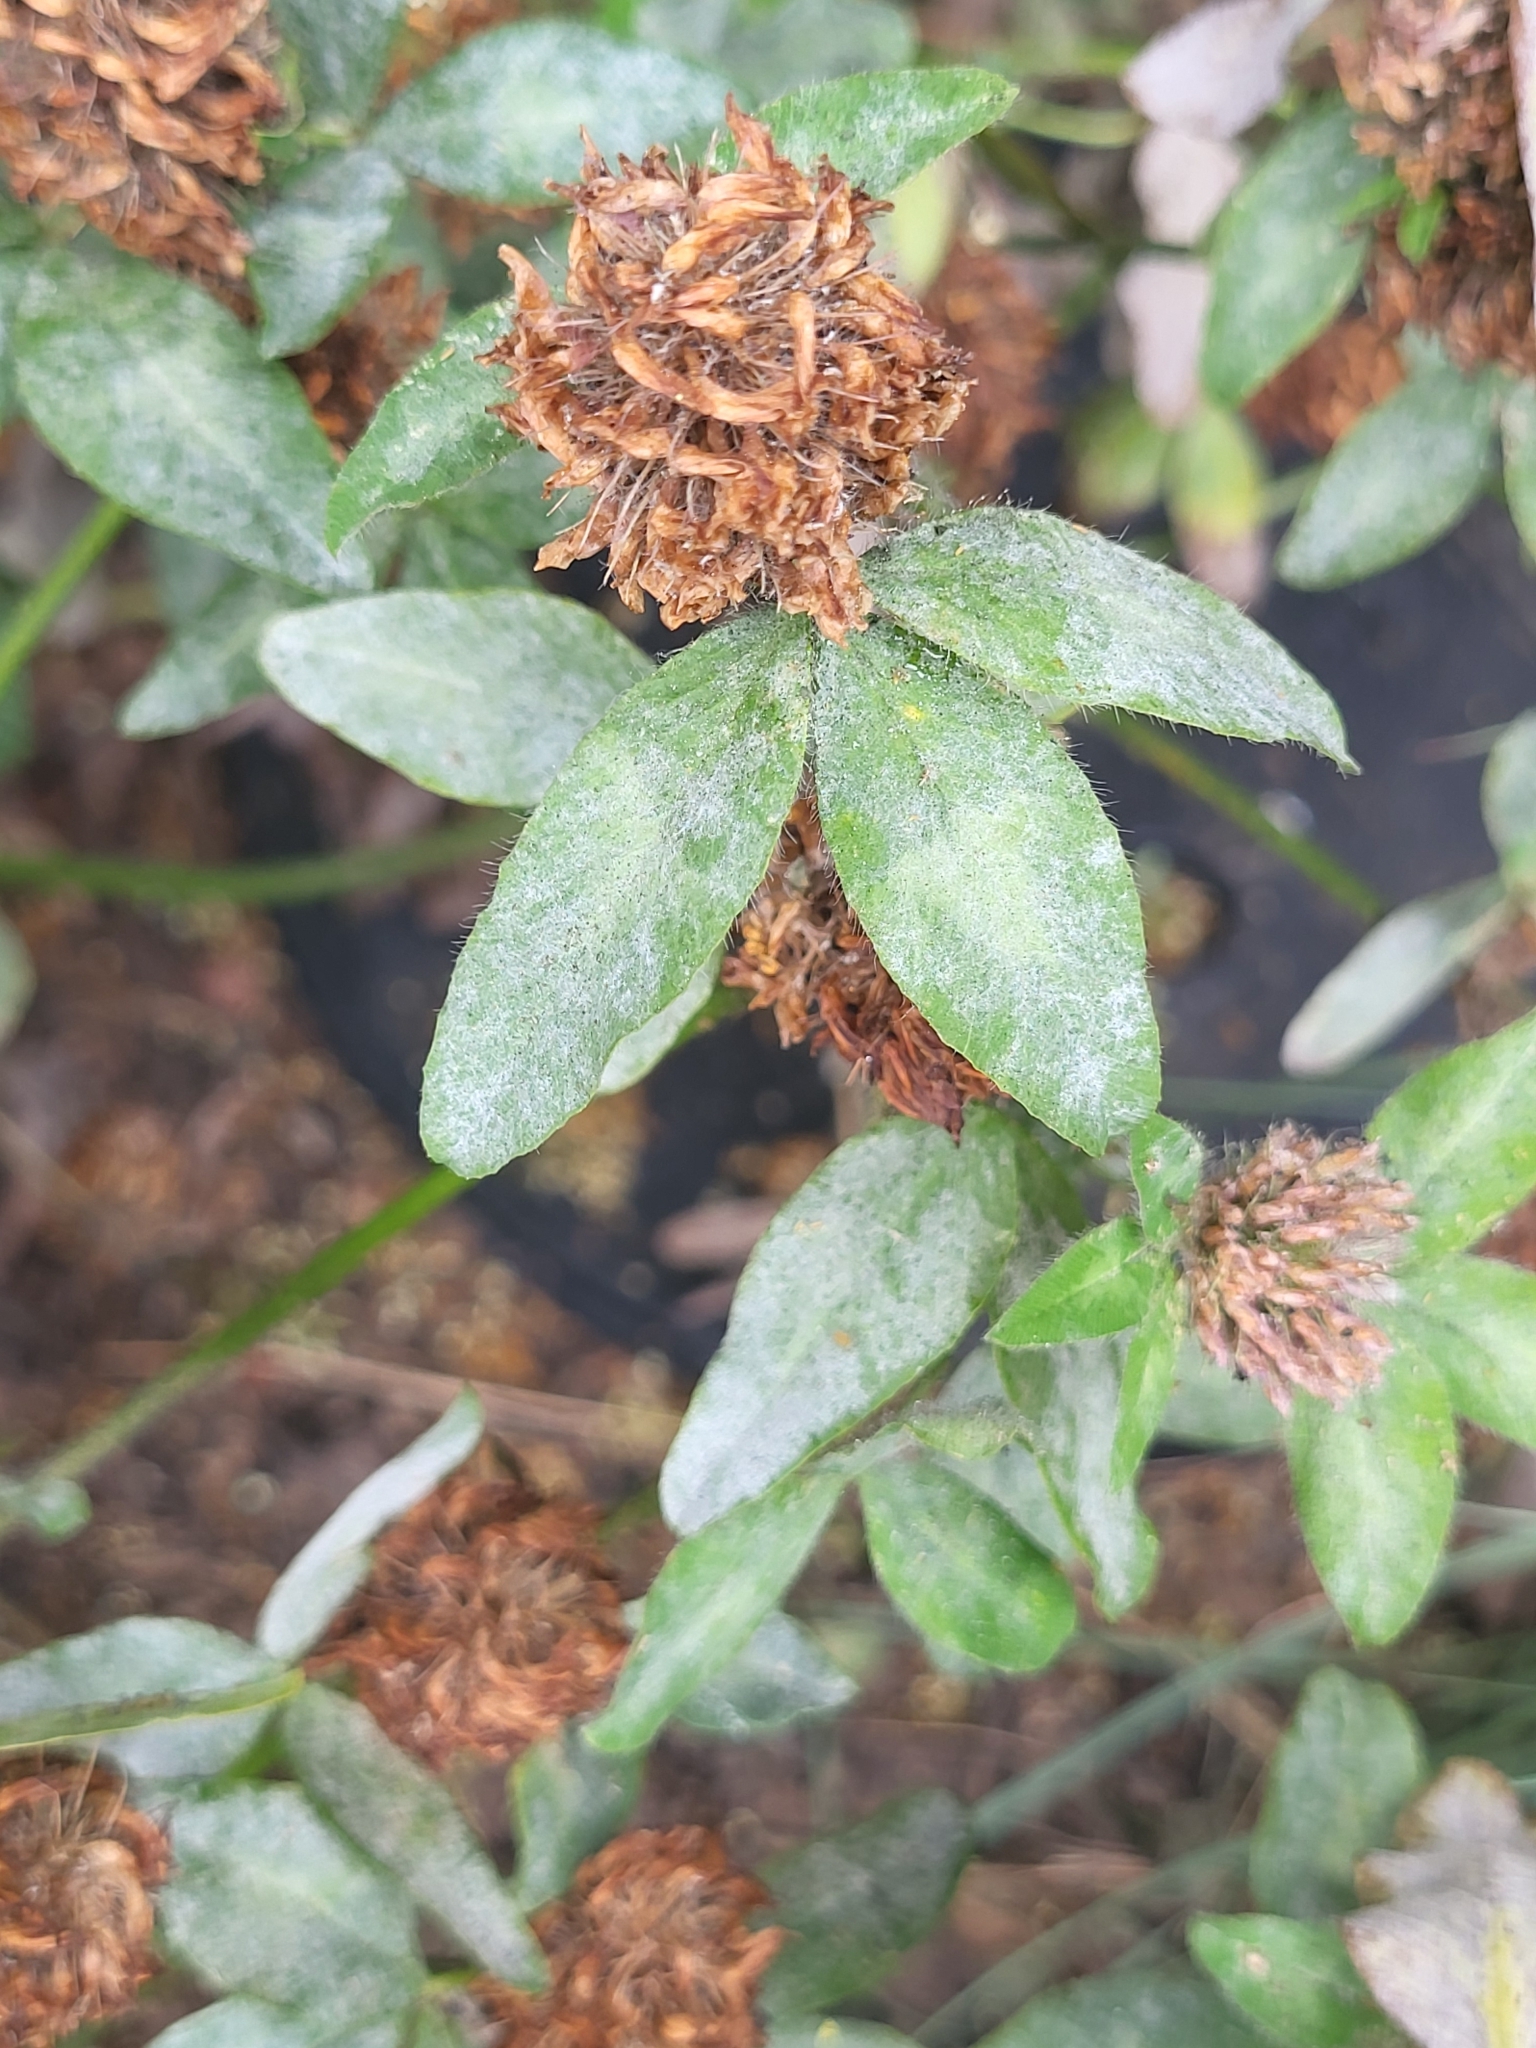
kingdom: Fungi
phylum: Ascomycota
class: Leotiomycetes
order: Helotiales
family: Erysiphaceae
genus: Erysiphe
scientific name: Erysiphe trifoliorum
